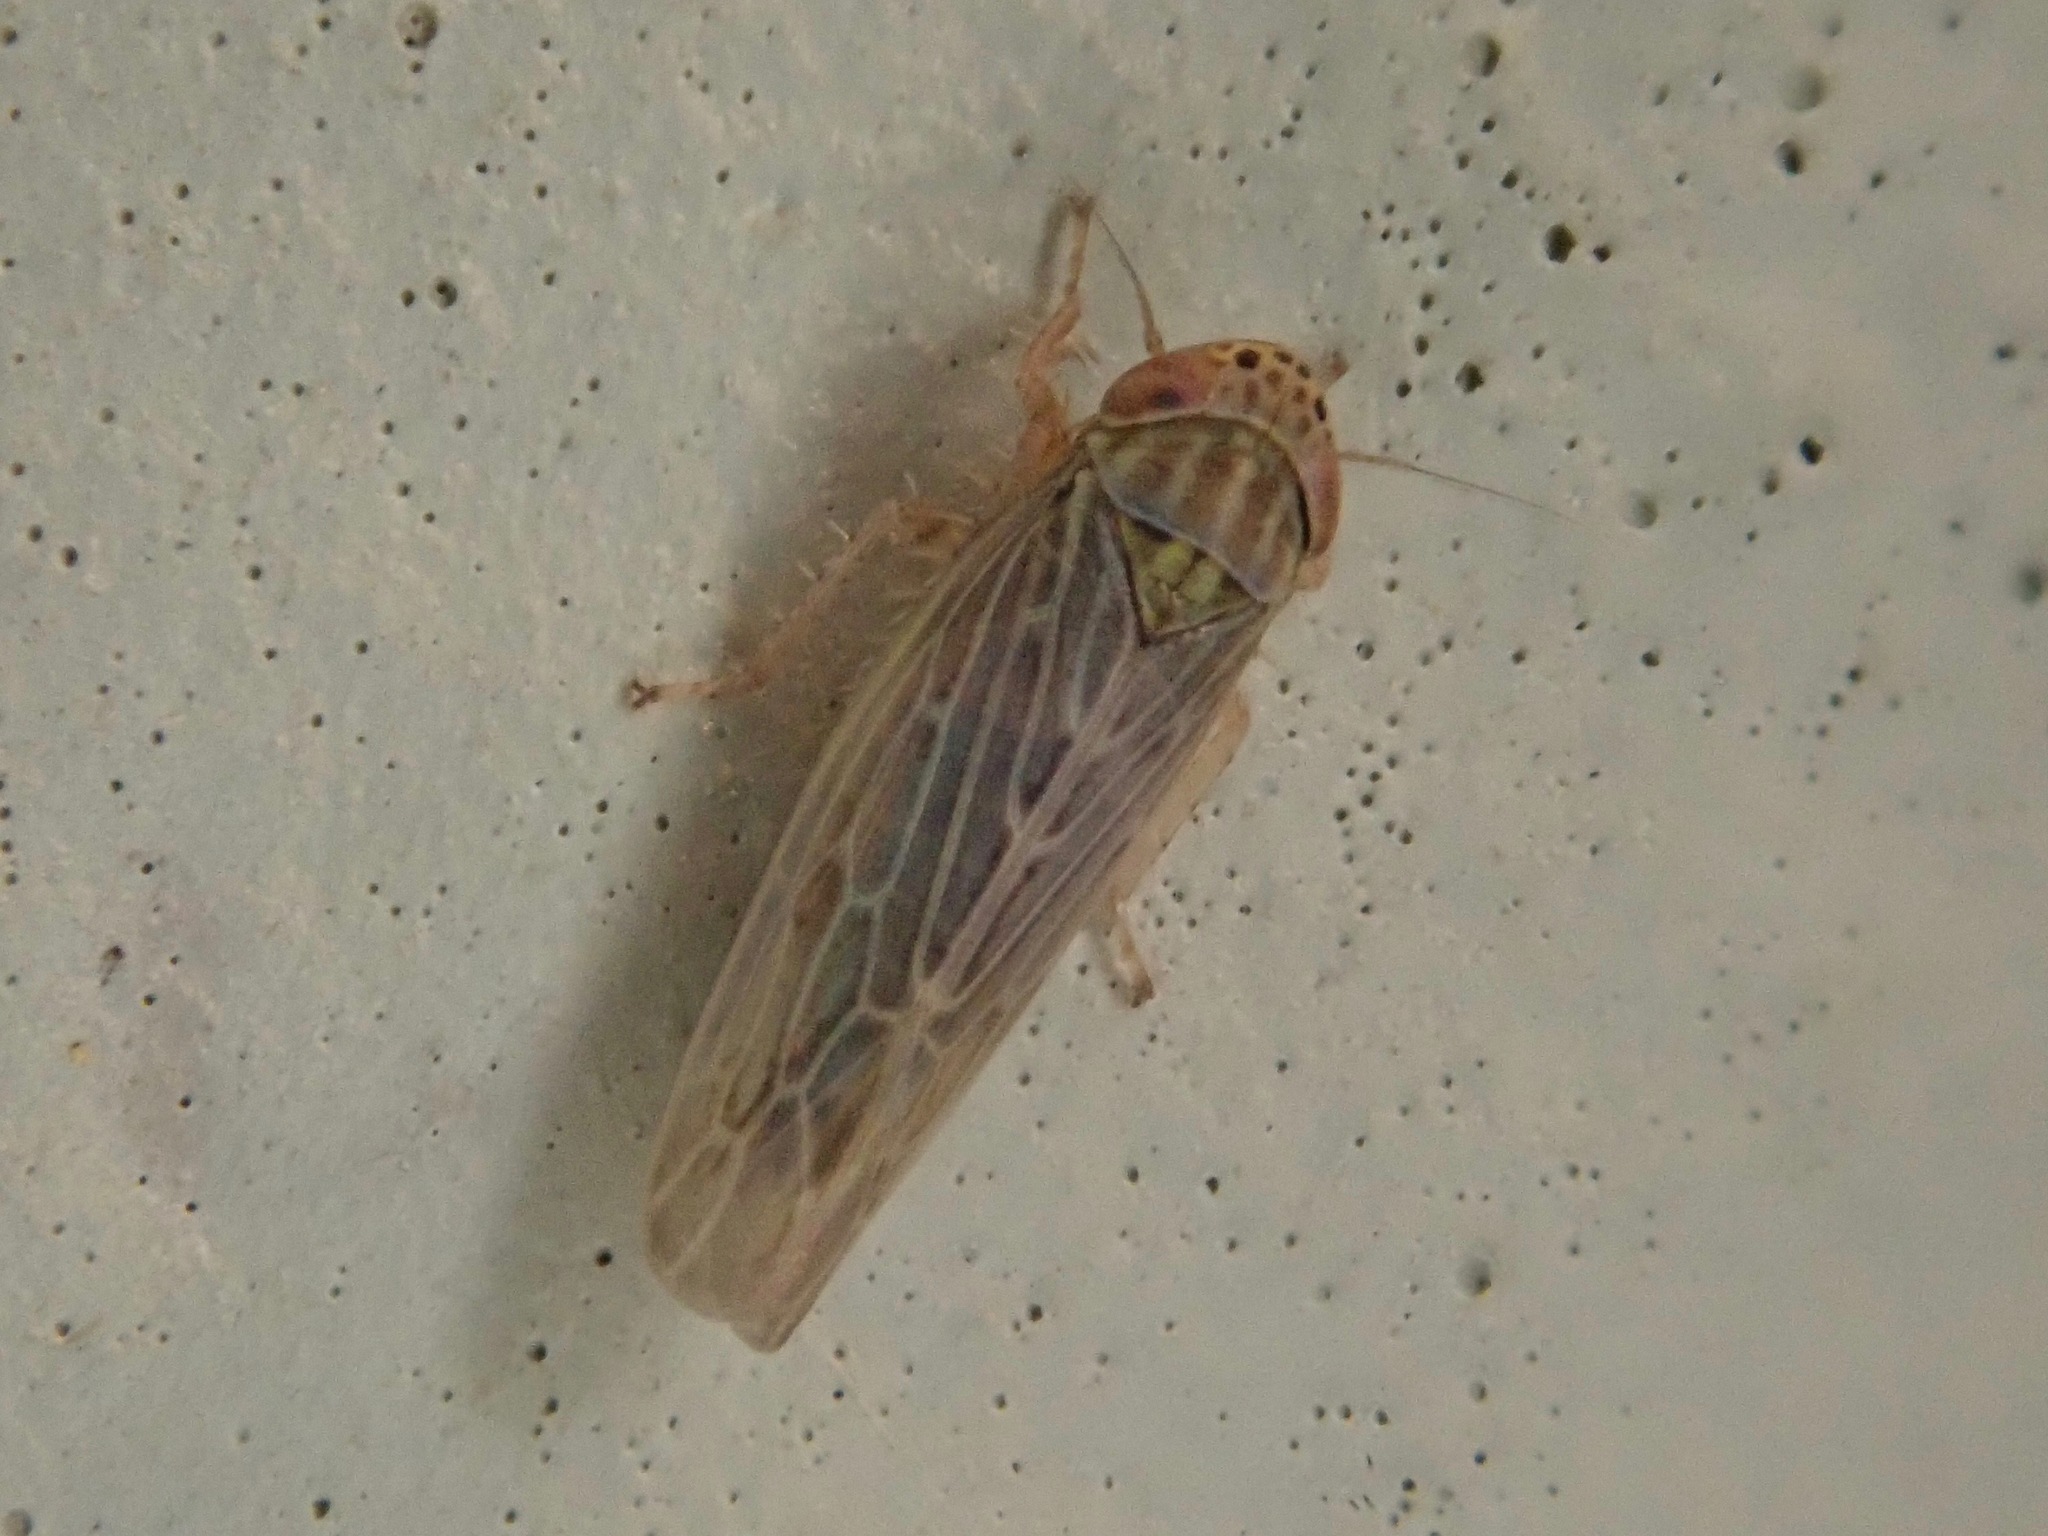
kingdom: Animalia
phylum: Arthropoda
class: Insecta
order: Hemiptera
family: Cicadellidae
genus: Graminella
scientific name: Graminella sonora
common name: Lesser lawn leafhopper
